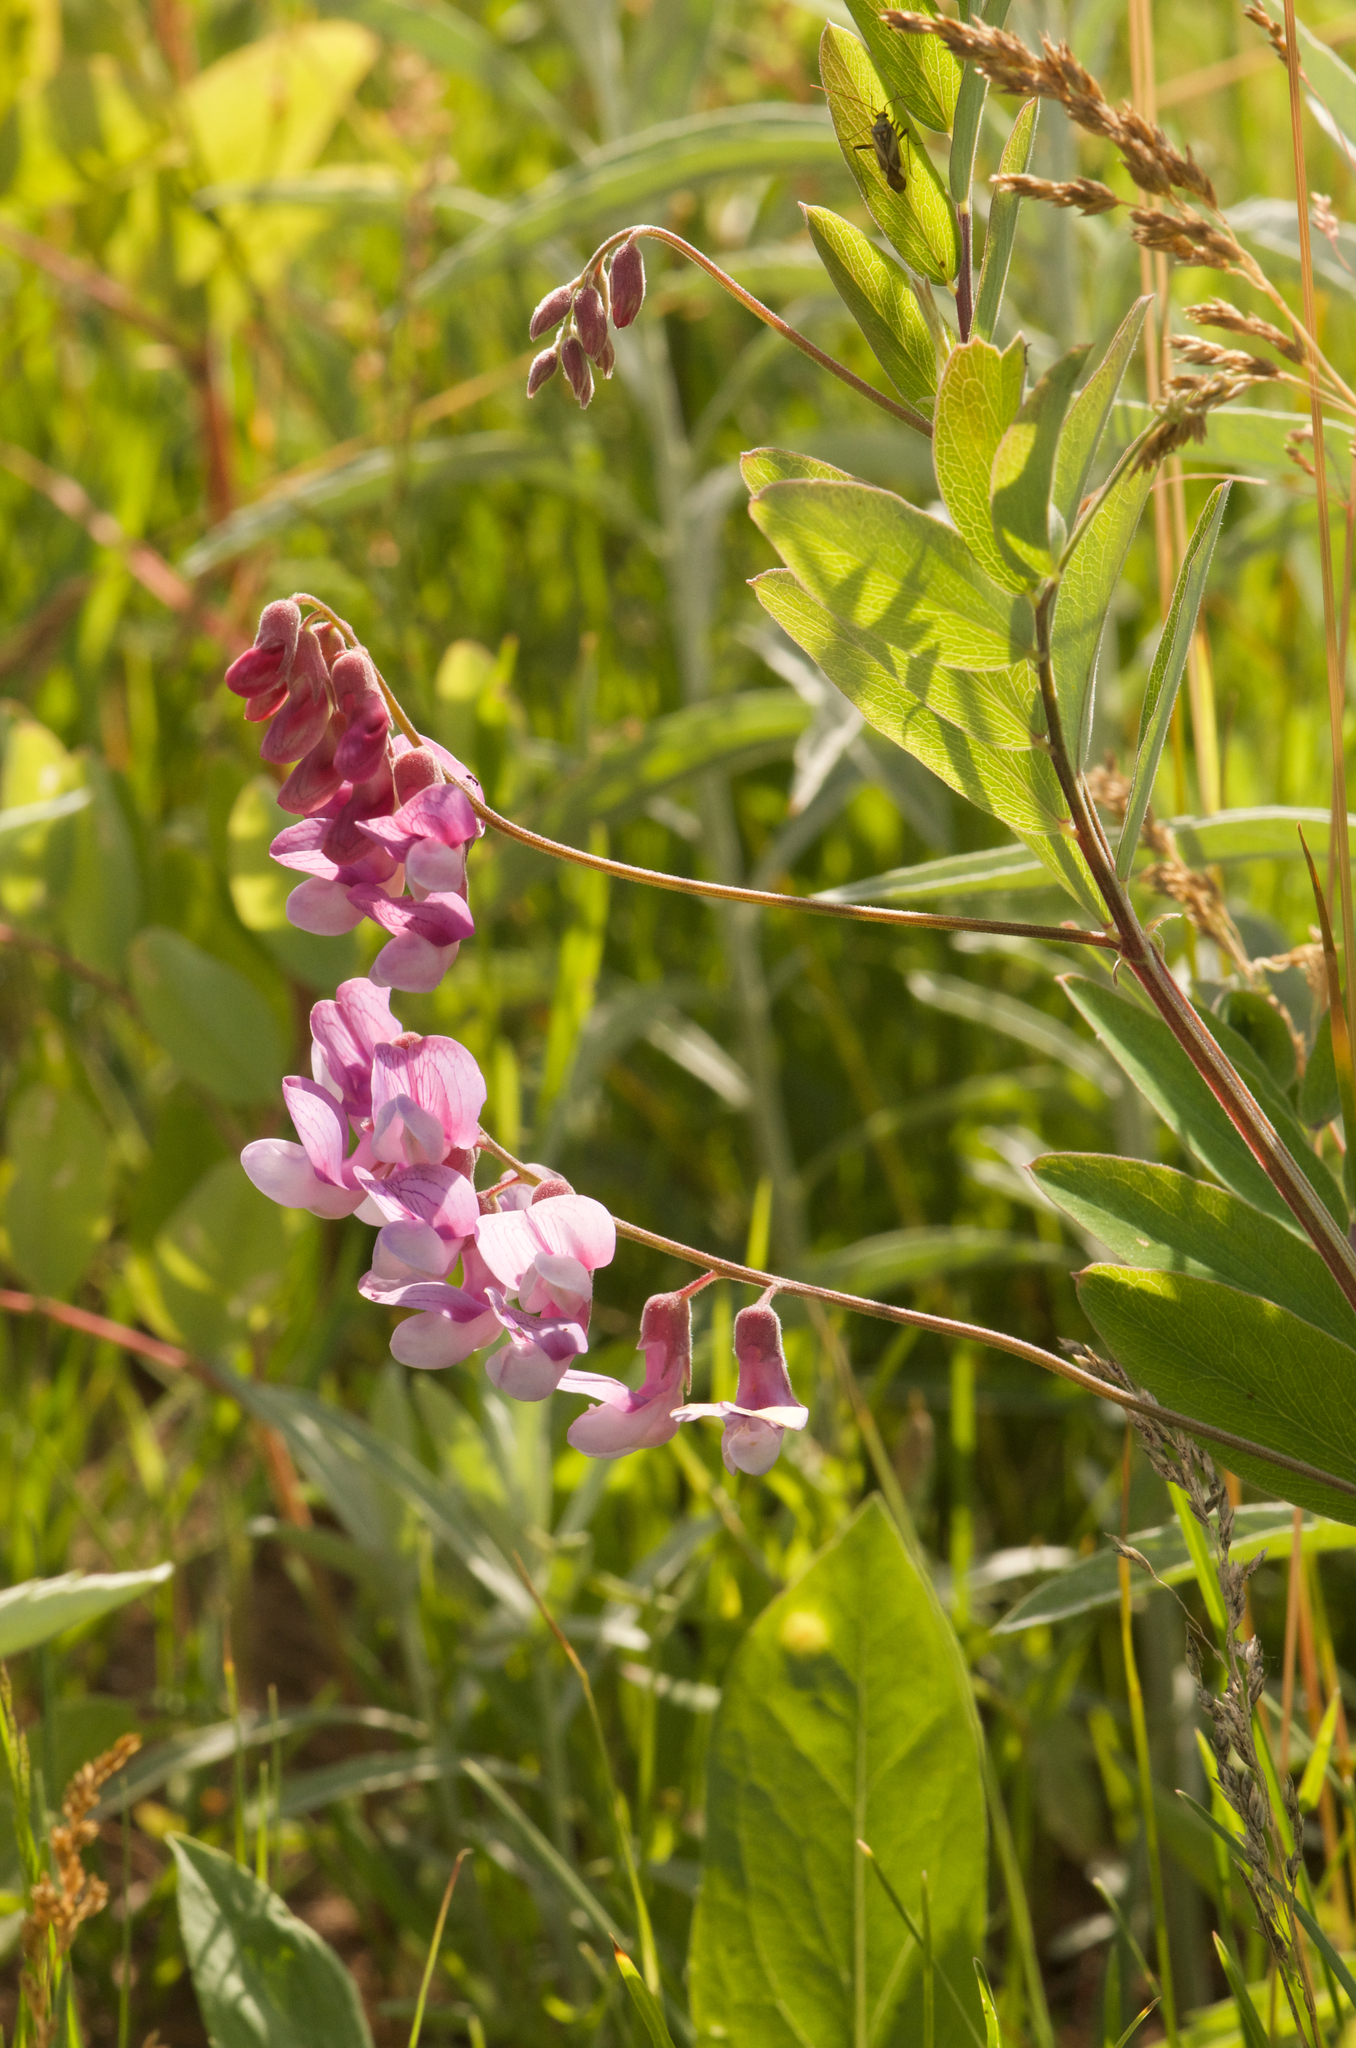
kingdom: Plantae
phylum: Tracheophyta
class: Magnoliopsida
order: Fabales
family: Fabaceae
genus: Lathyrus
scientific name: Lathyrus venosus
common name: Forest-pea
